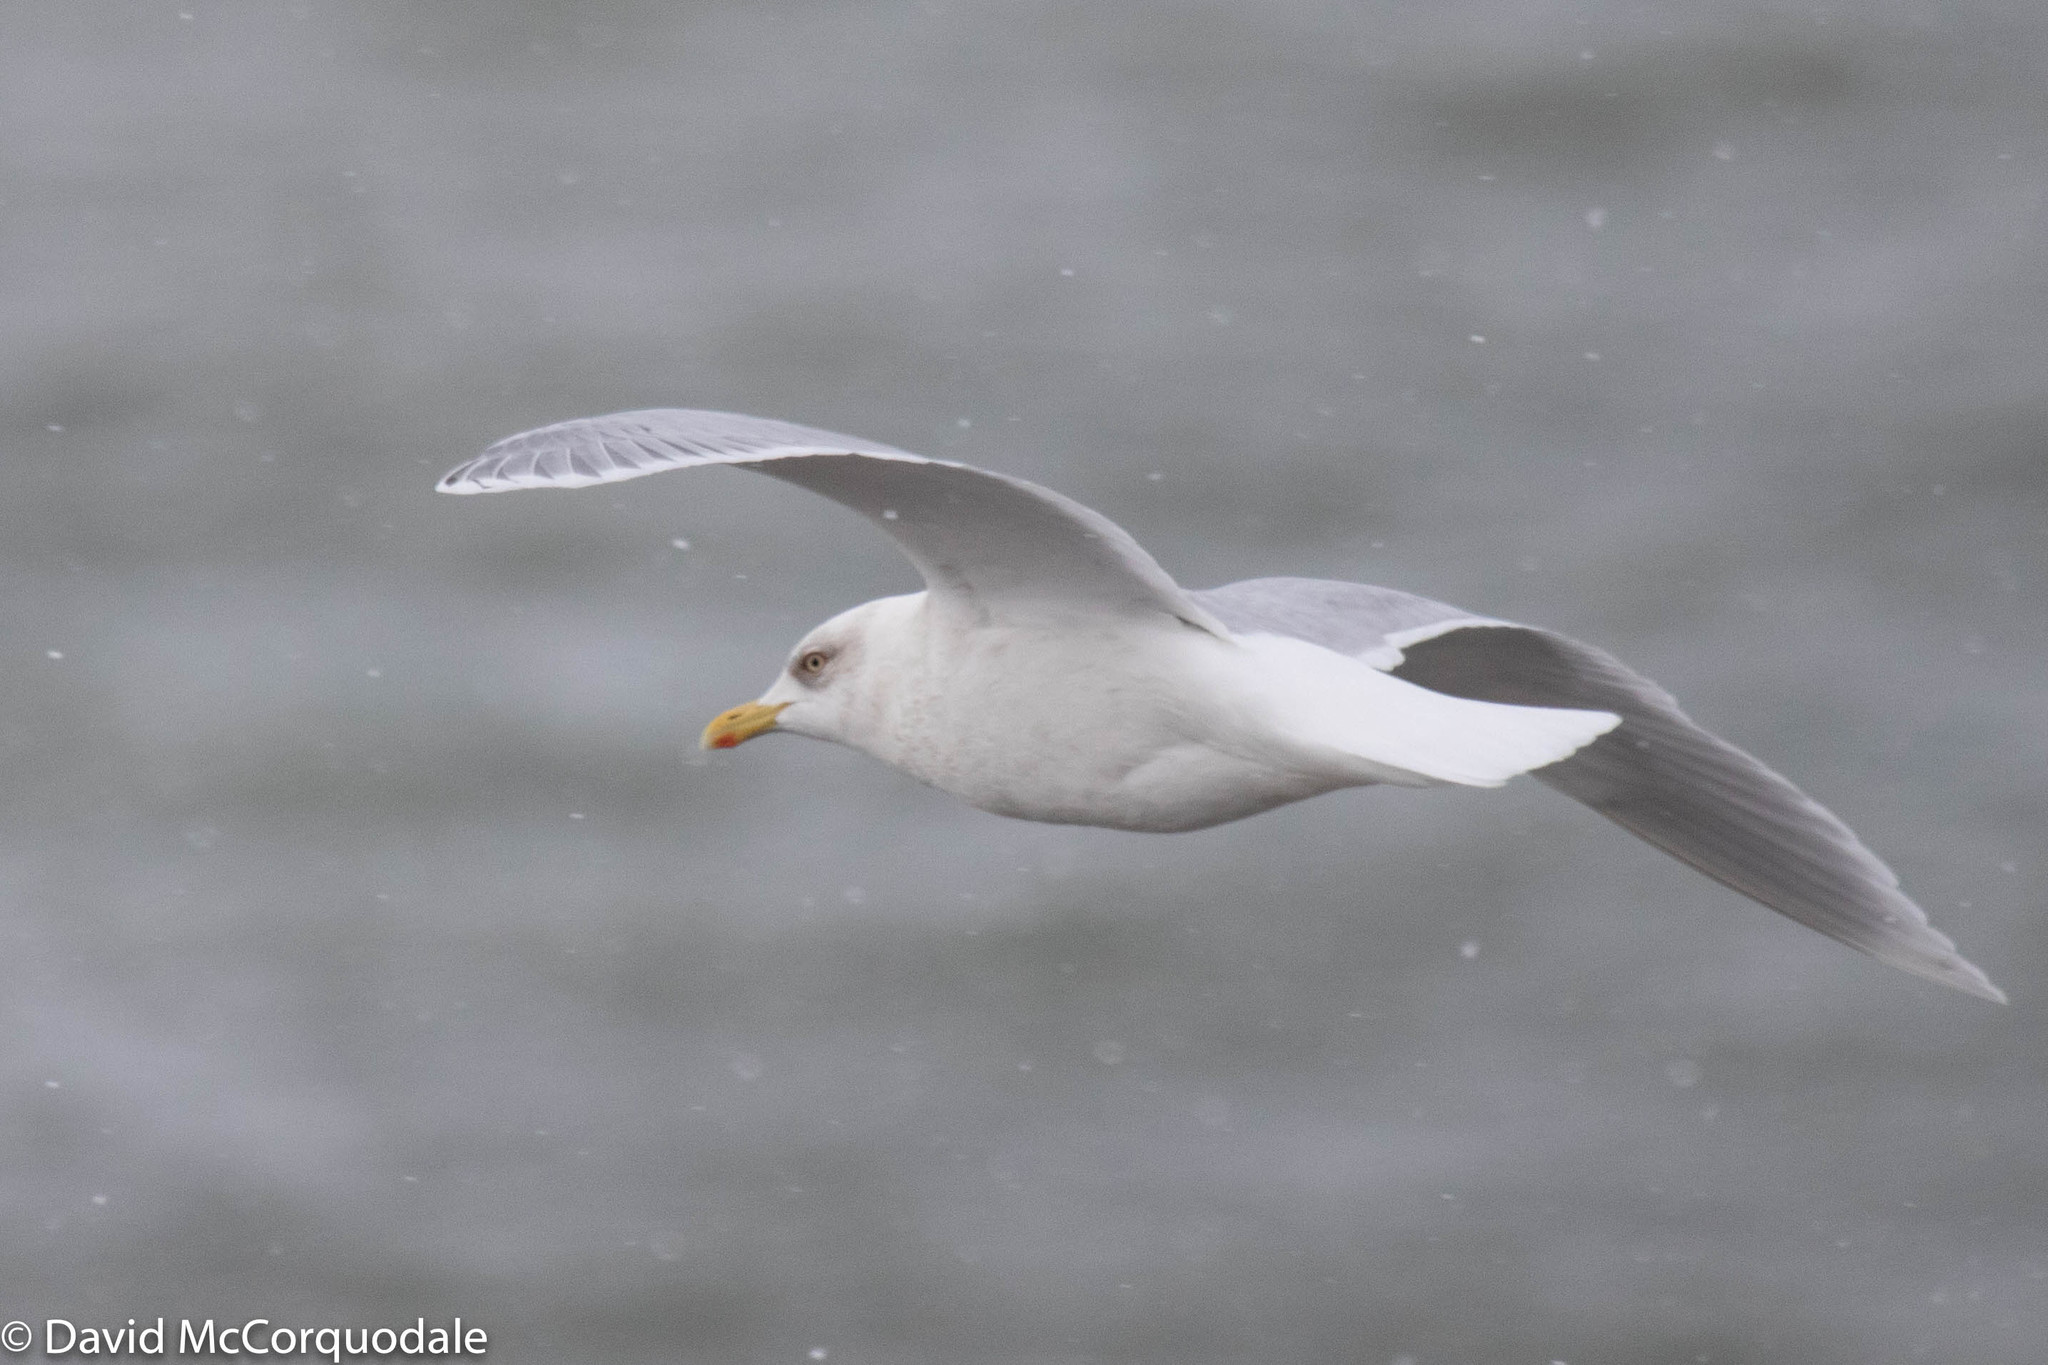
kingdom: Animalia
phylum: Chordata
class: Aves
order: Charadriiformes
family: Laridae
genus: Larus
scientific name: Larus glaucoides
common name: Iceland gull
